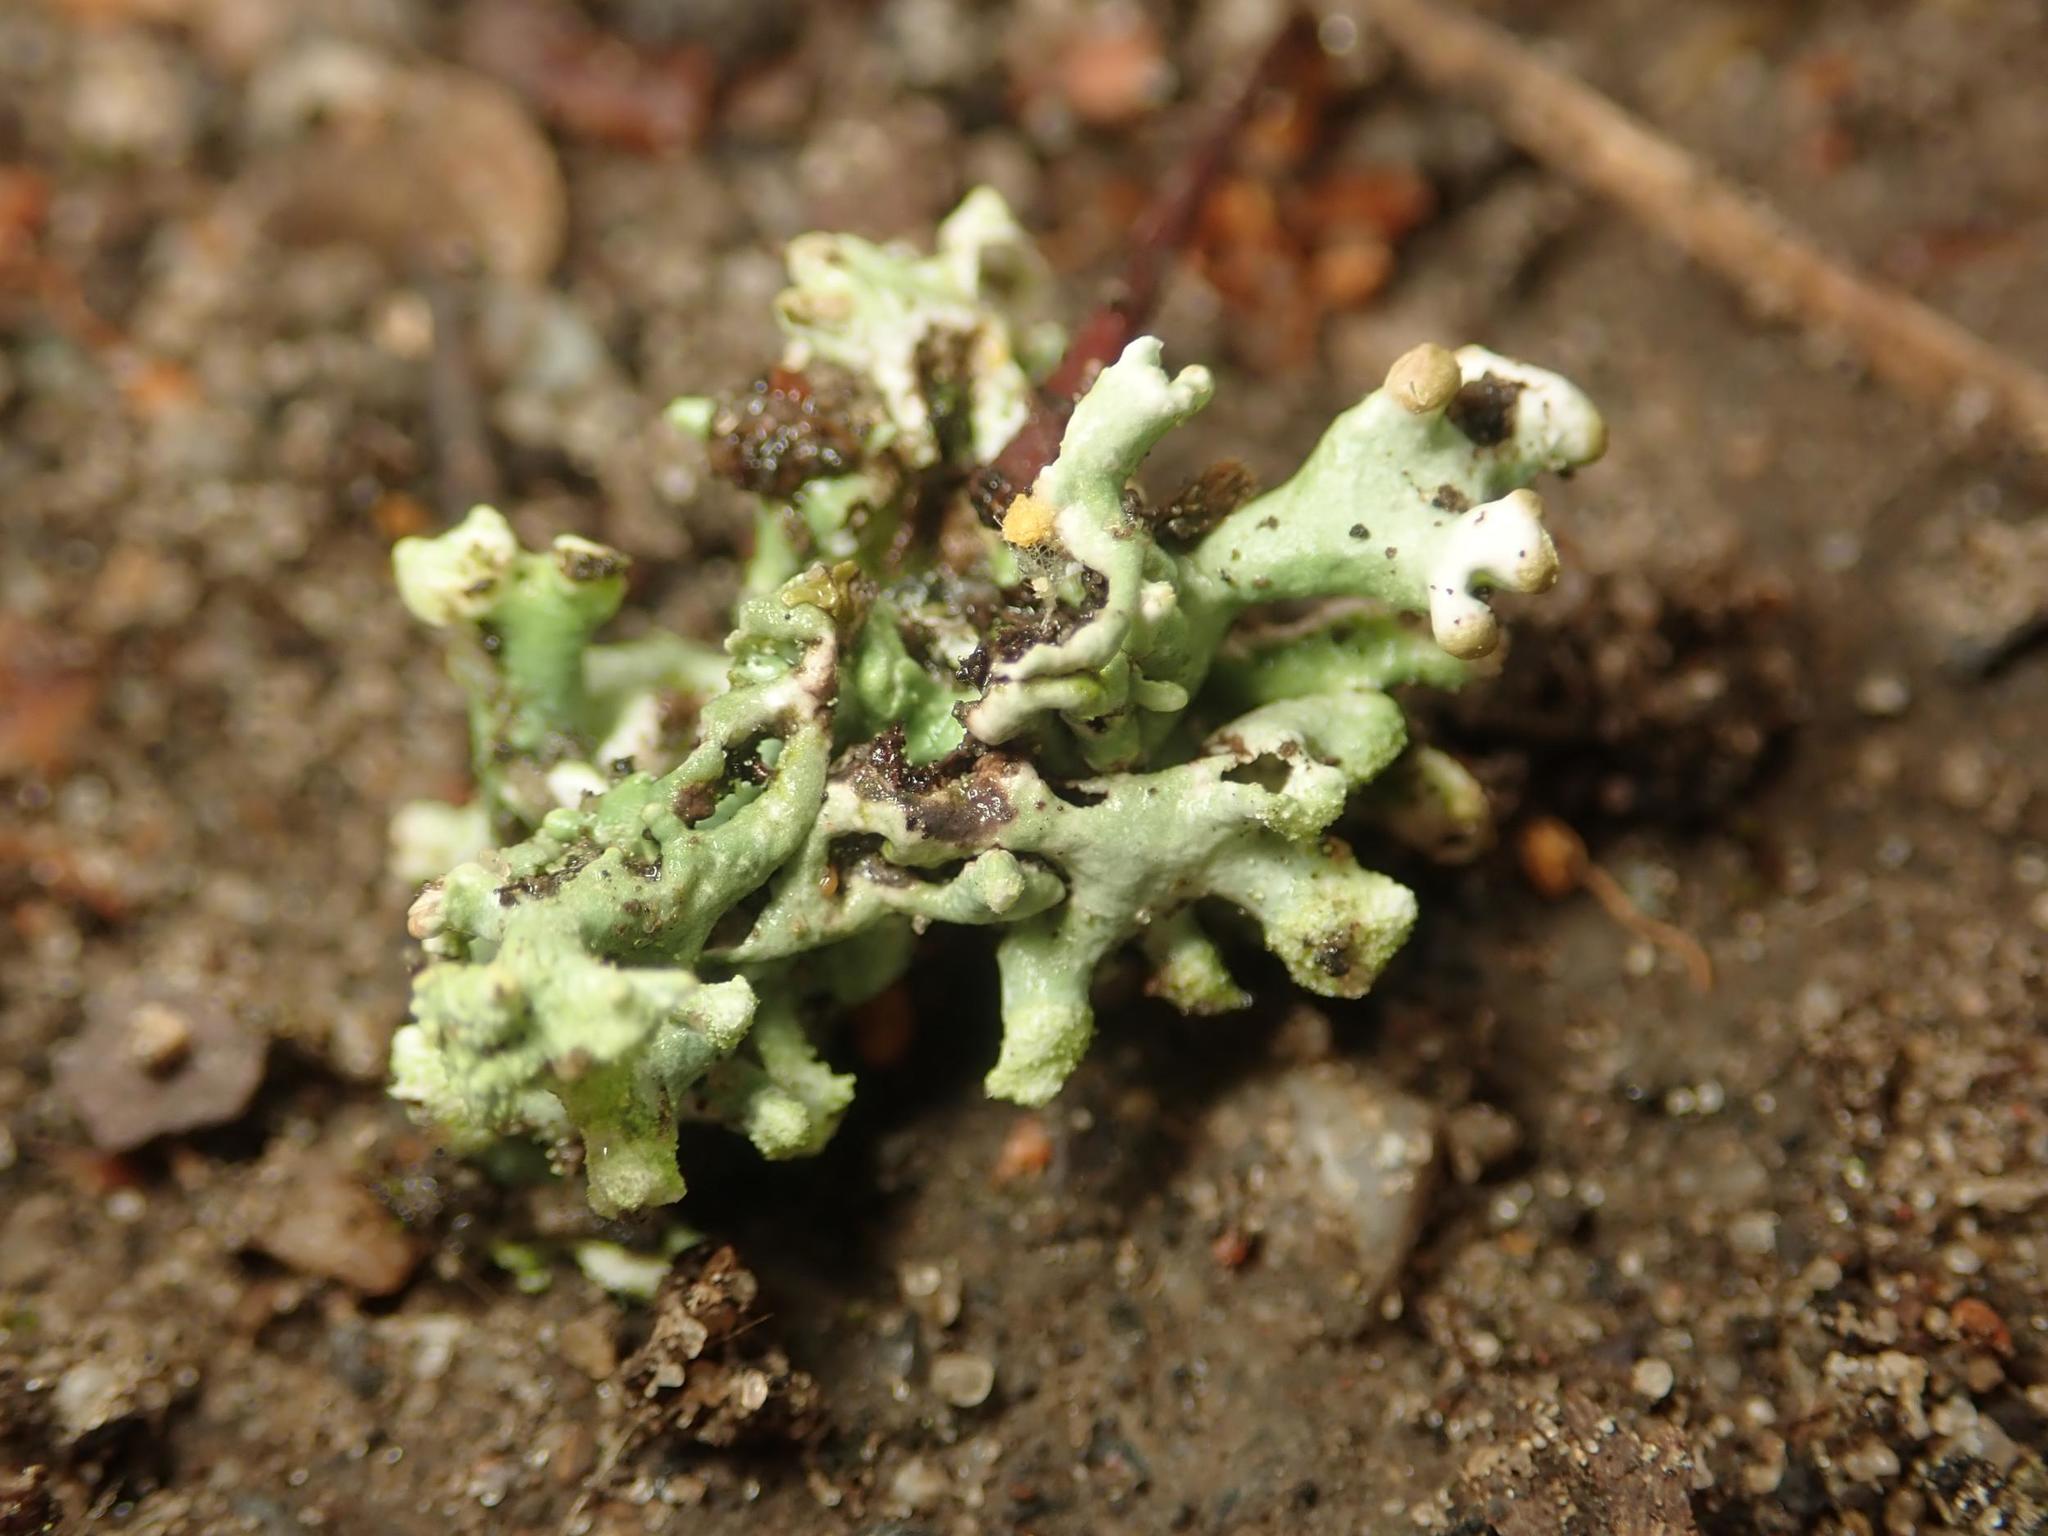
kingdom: Fungi
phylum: Ascomycota
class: Lecanoromycetes
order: Lecanorales
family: Parmeliaceae
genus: Hypogymnia
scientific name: Hypogymnia tubulosa
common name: Powder-headed tube lichen
